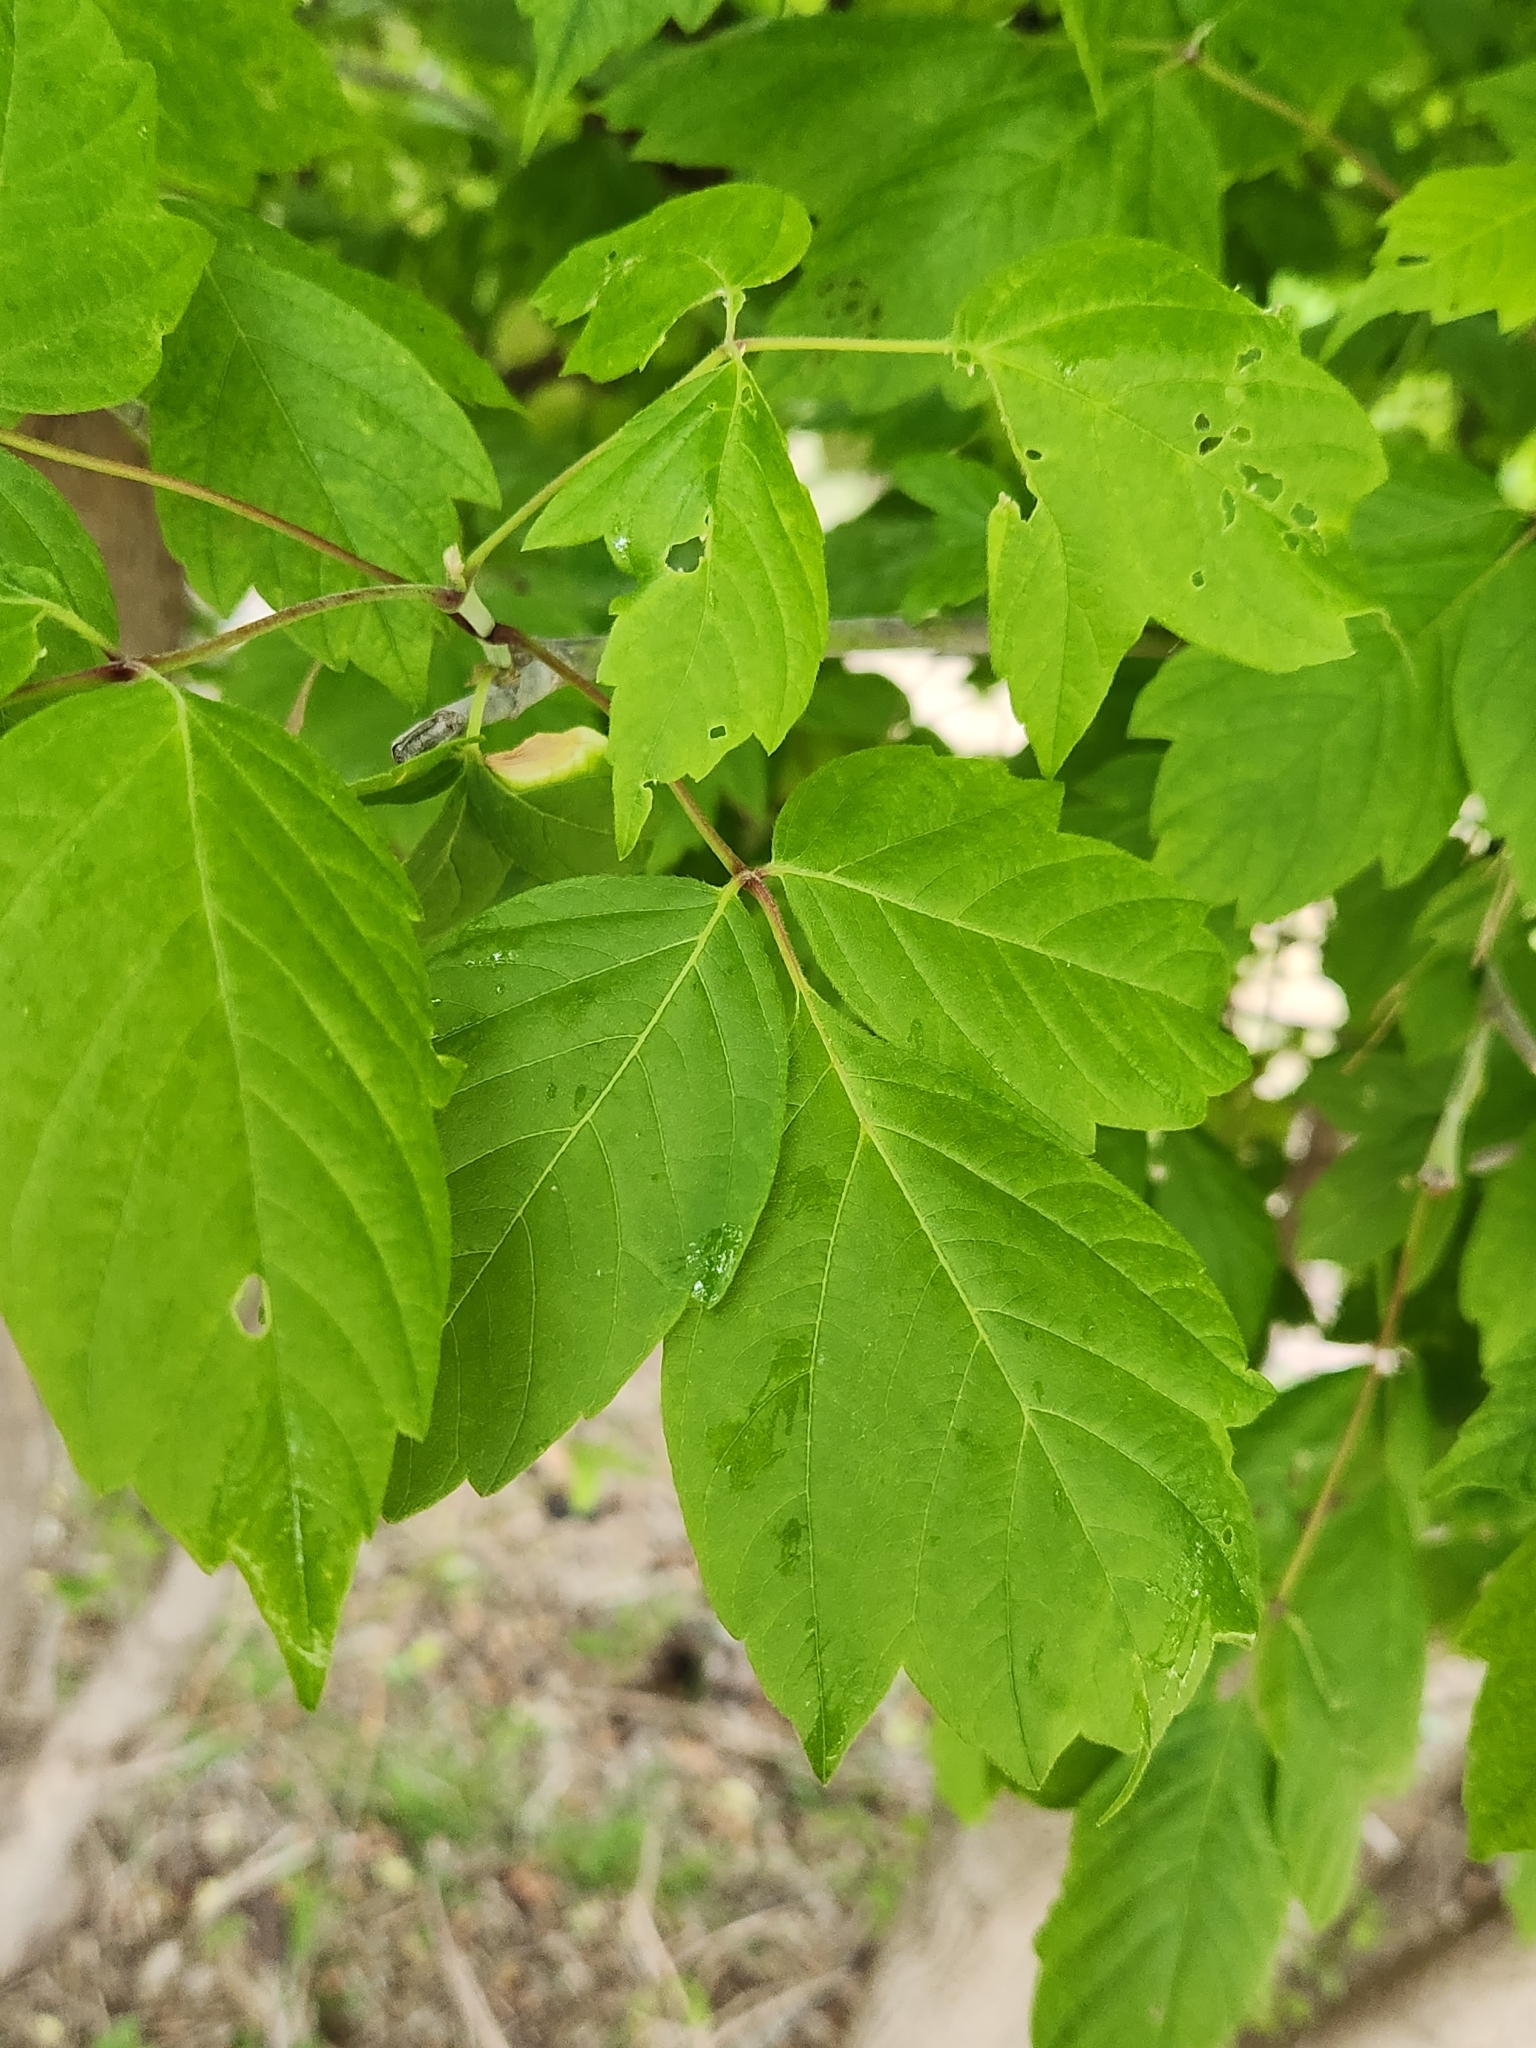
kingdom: Plantae
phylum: Tracheophyta
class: Magnoliopsida
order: Sapindales
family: Sapindaceae
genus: Acer
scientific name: Acer negundo
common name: Ashleaf maple
